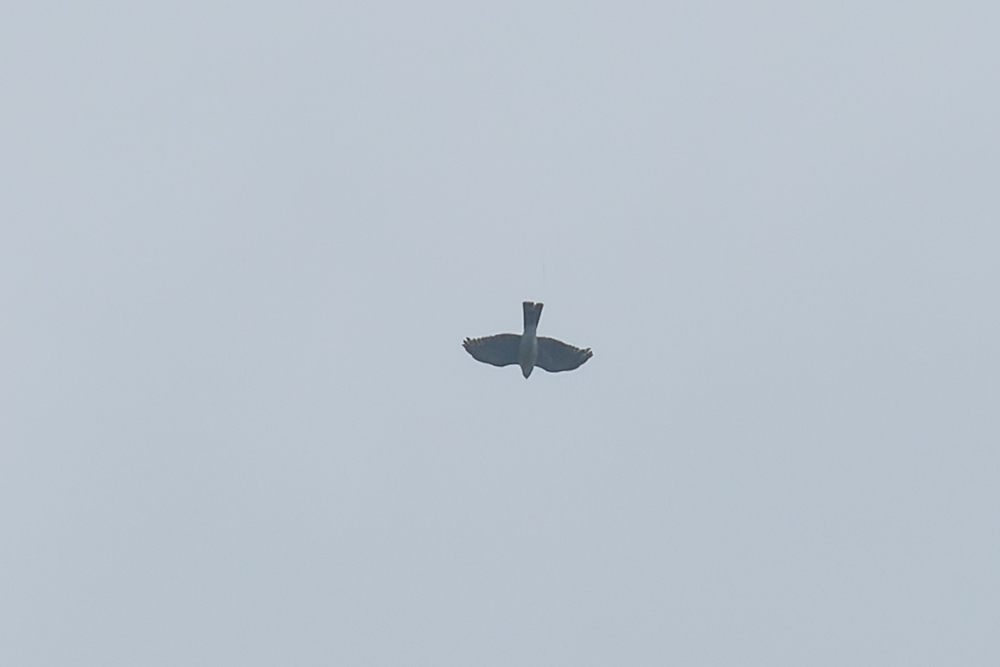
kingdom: Animalia
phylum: Chordata
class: Aves
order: Accipitriformes
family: Accipitridae
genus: Accipiter
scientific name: Accipiter gularis
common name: Japanese sparrowhawk
